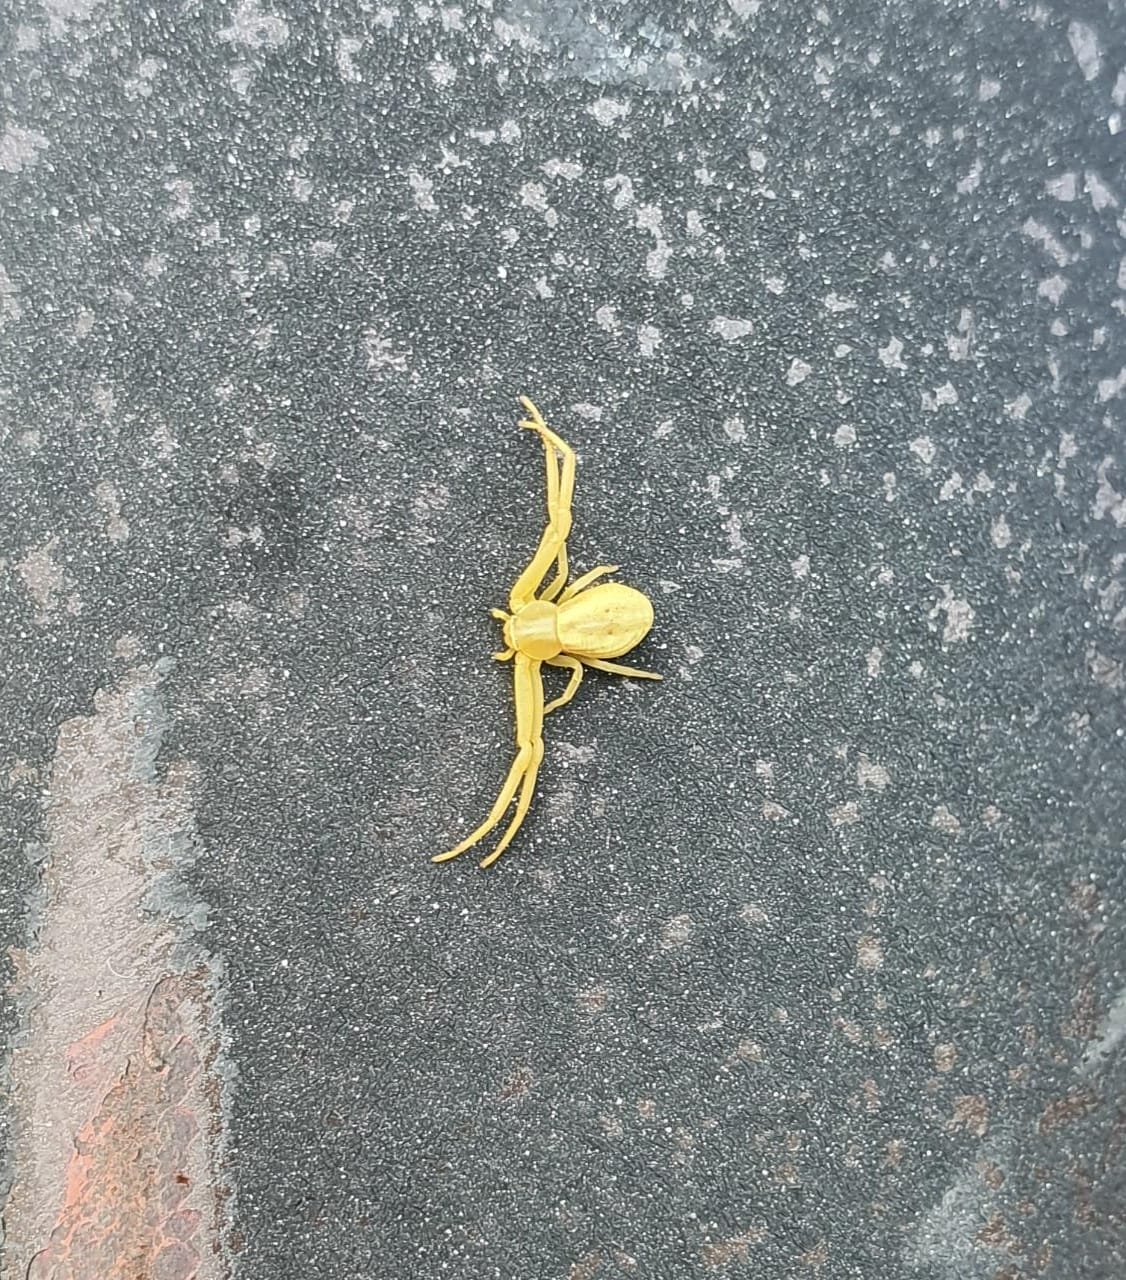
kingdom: Animalia
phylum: Arthropoda
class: Arachnida
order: Araneae
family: Thomisidae
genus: Runcinia
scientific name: Runcinia grammica
